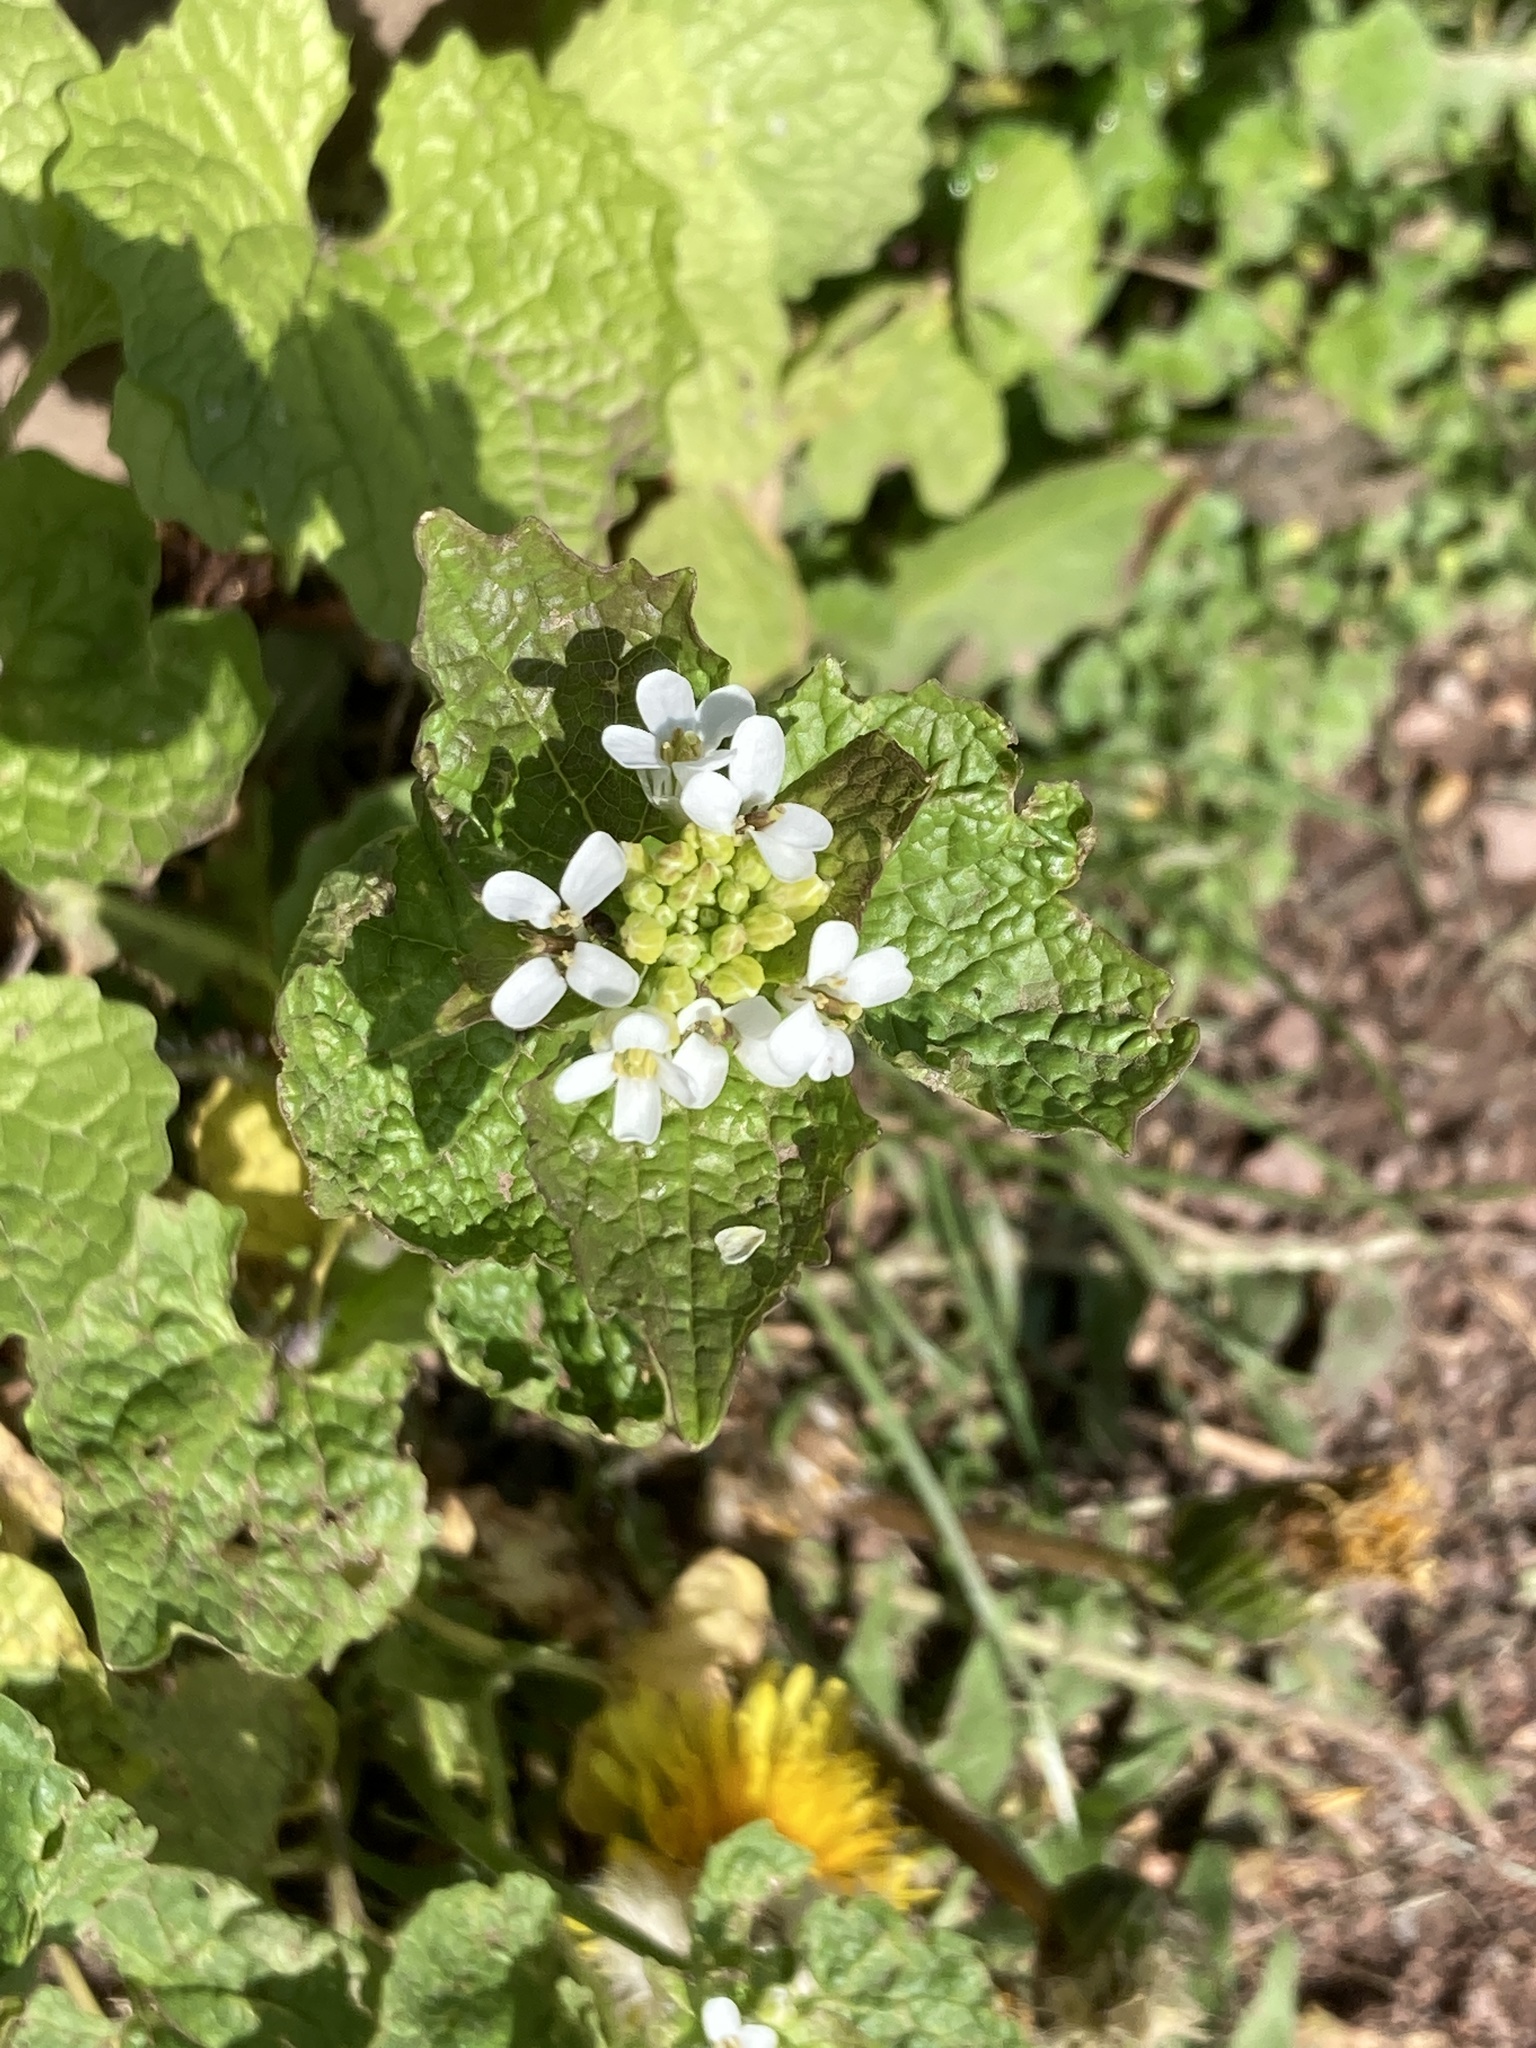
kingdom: Plantae
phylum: Tracheophyta
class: Magnoliopsida
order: Brassicales
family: Brassicaceae
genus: Alliaria
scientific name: Alliaria petiolata
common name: Garlic mustard
